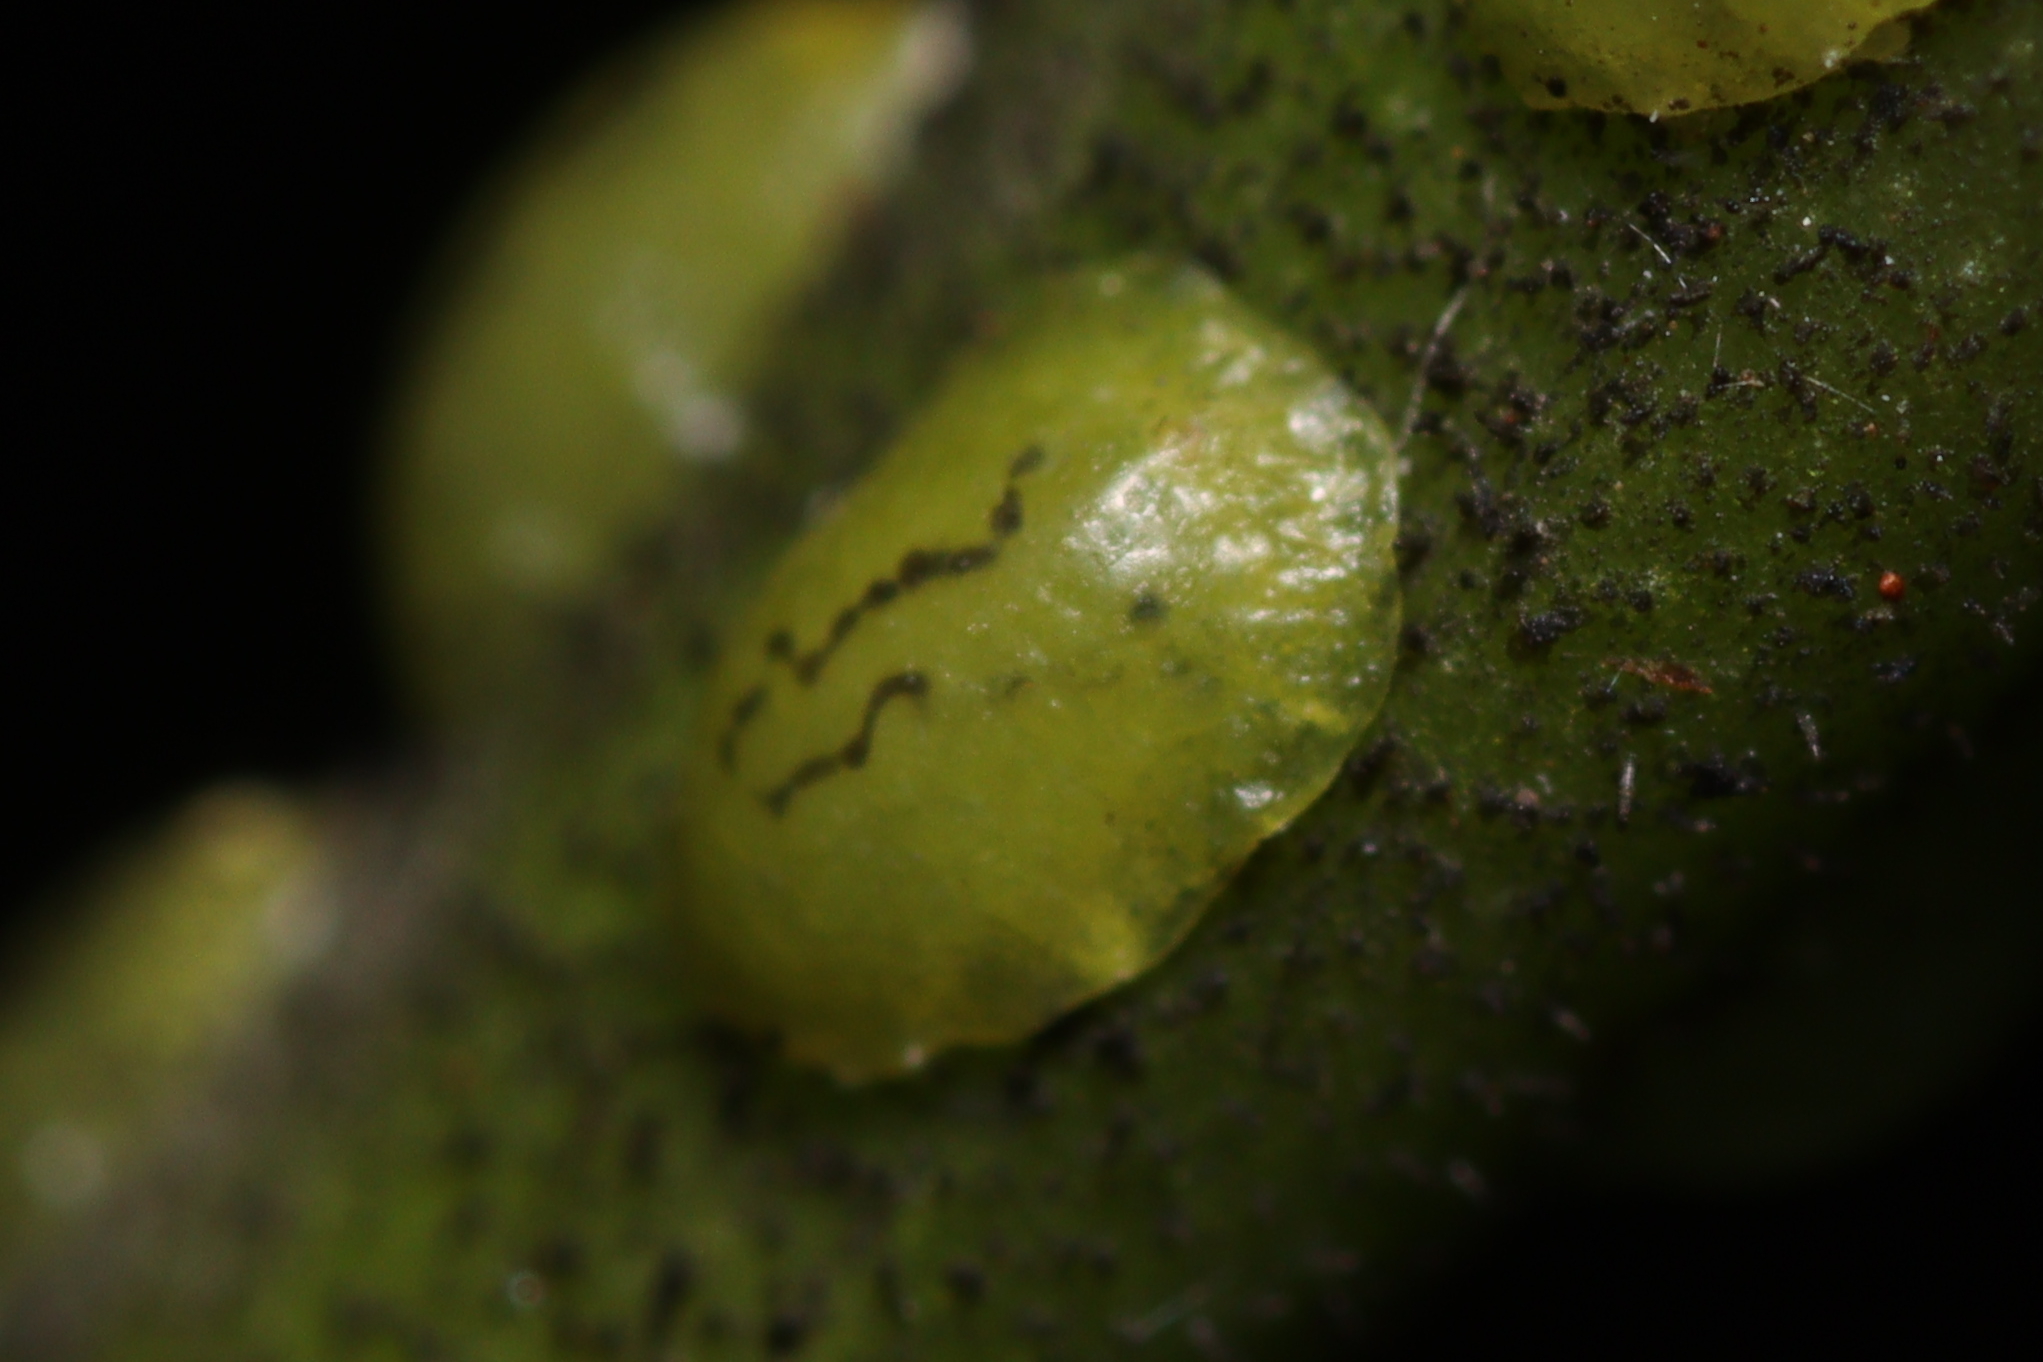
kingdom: Animalia
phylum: Arthropoda
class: Insecta
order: Hemiptera
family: Coccidae
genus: Coccus
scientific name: Coccus viridis
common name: Green scale
